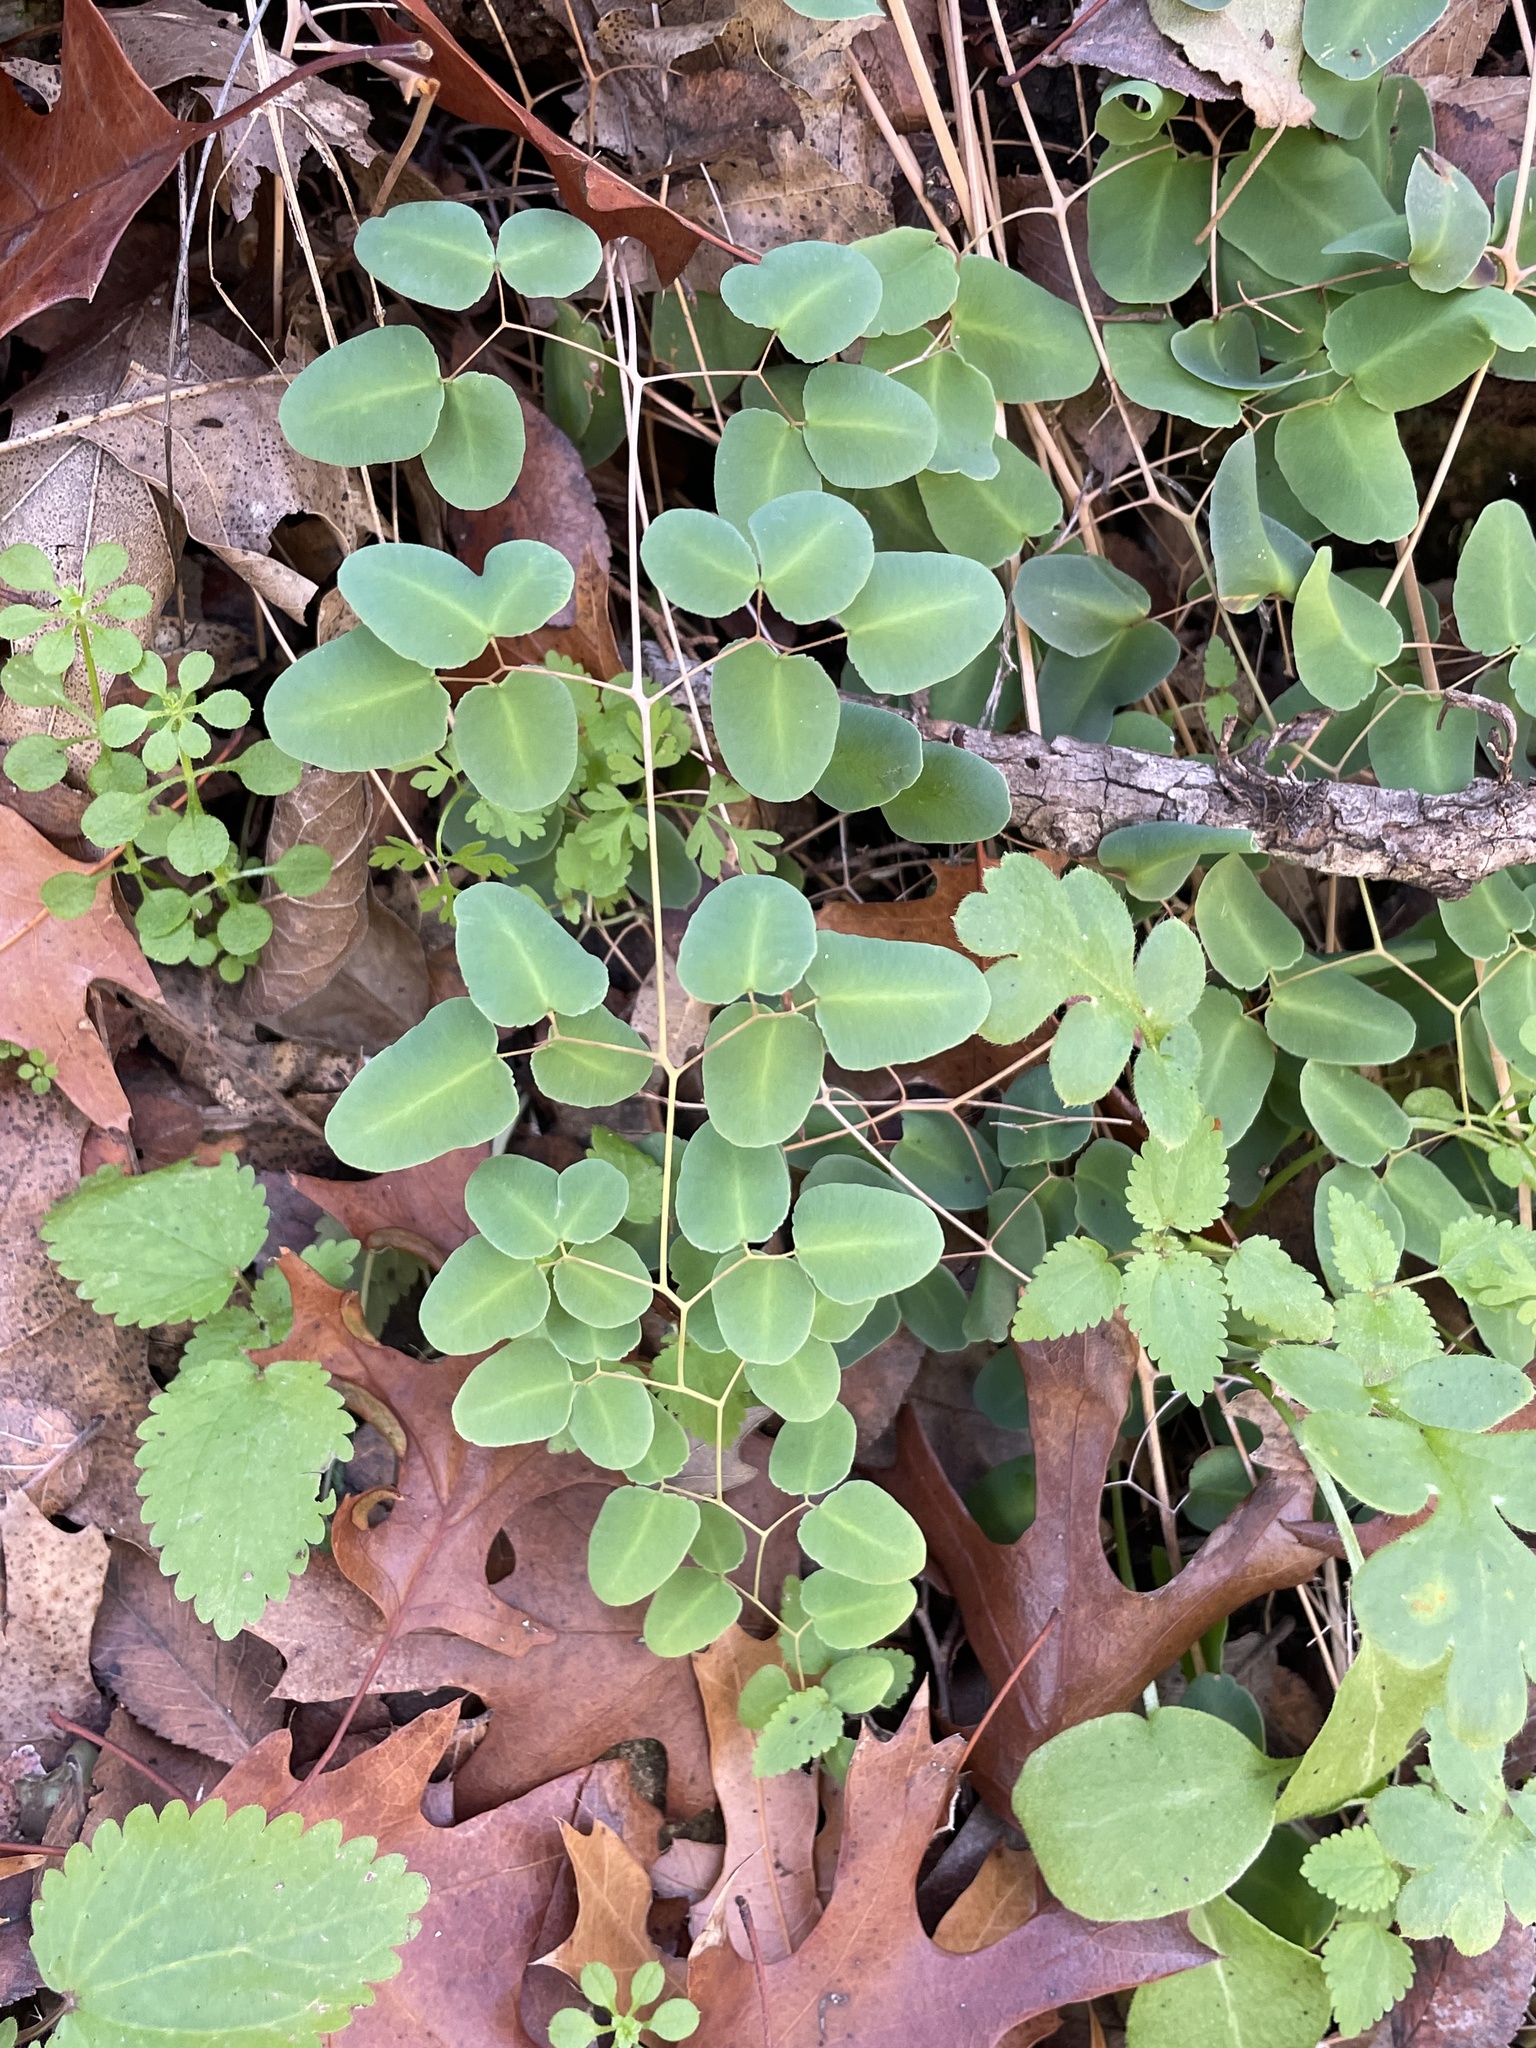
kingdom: Plantae
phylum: Tracheophyta
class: Polypodiopsida
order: Polypodiales
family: Pteridaceae
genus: Pellaea
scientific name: Pellaea ovata
